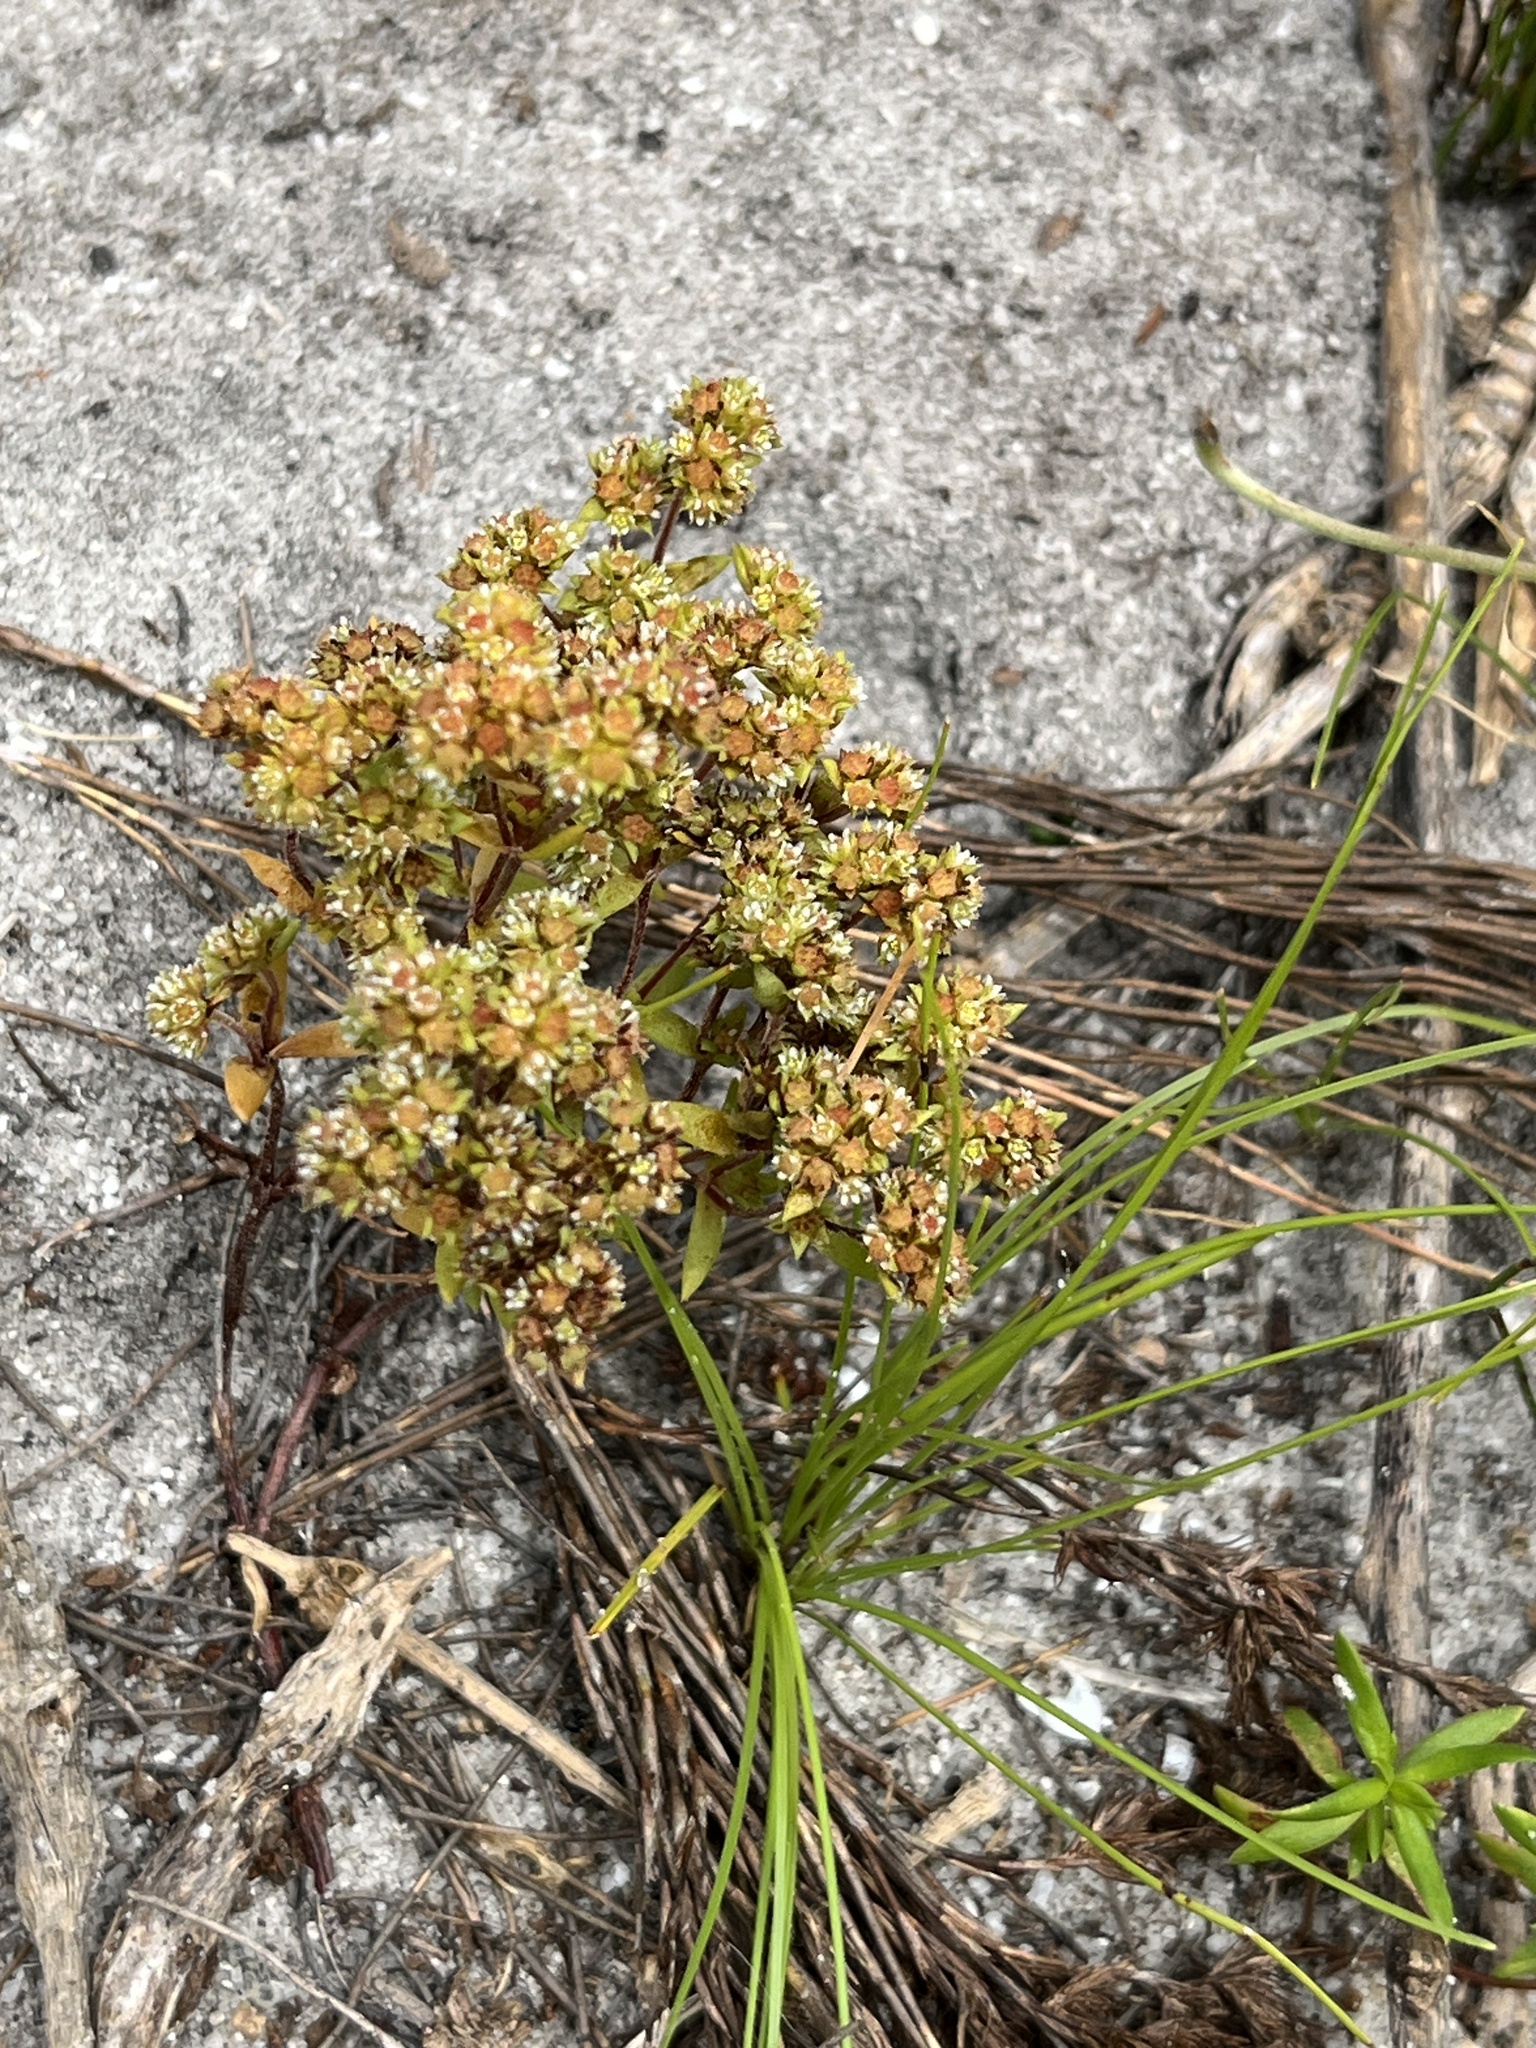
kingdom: Plantae
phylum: Tracheophyta
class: Magnoliopsida
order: Saxifragales
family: Crassulaceae
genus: Crassula
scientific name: Crassula glomerata
